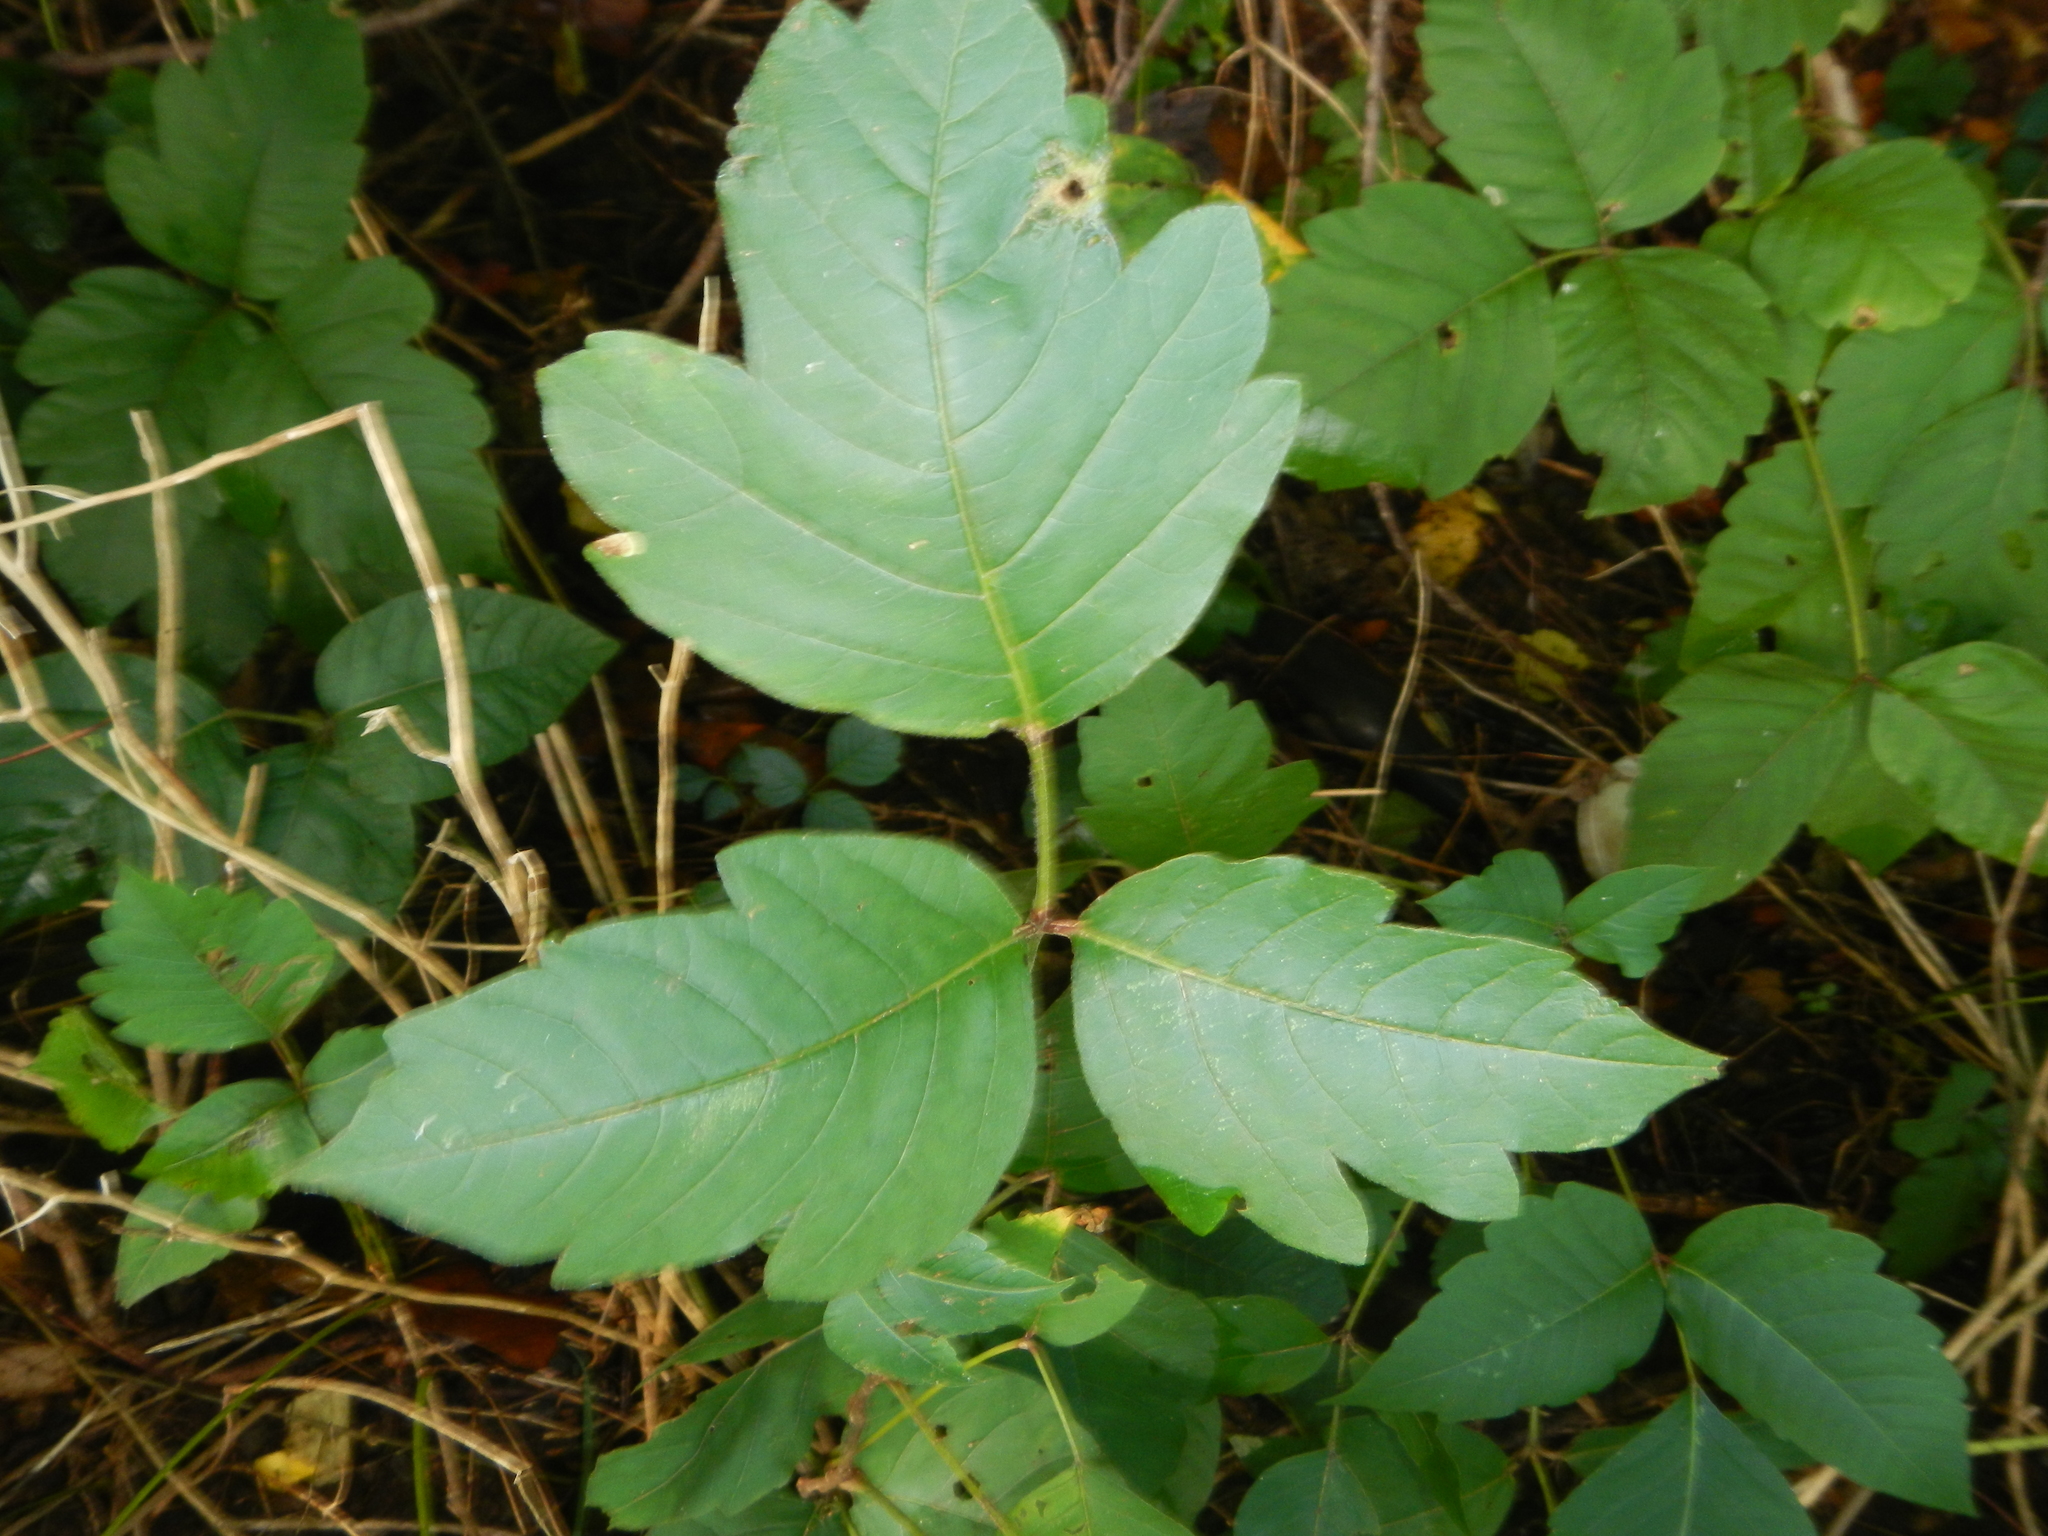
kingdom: Plantae
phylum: Tracheophyta
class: Magnoliopsida
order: Sapindales
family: Anacardiaceae
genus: Toxicodendron
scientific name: Toxicodendron radicans
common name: Poison ivy
